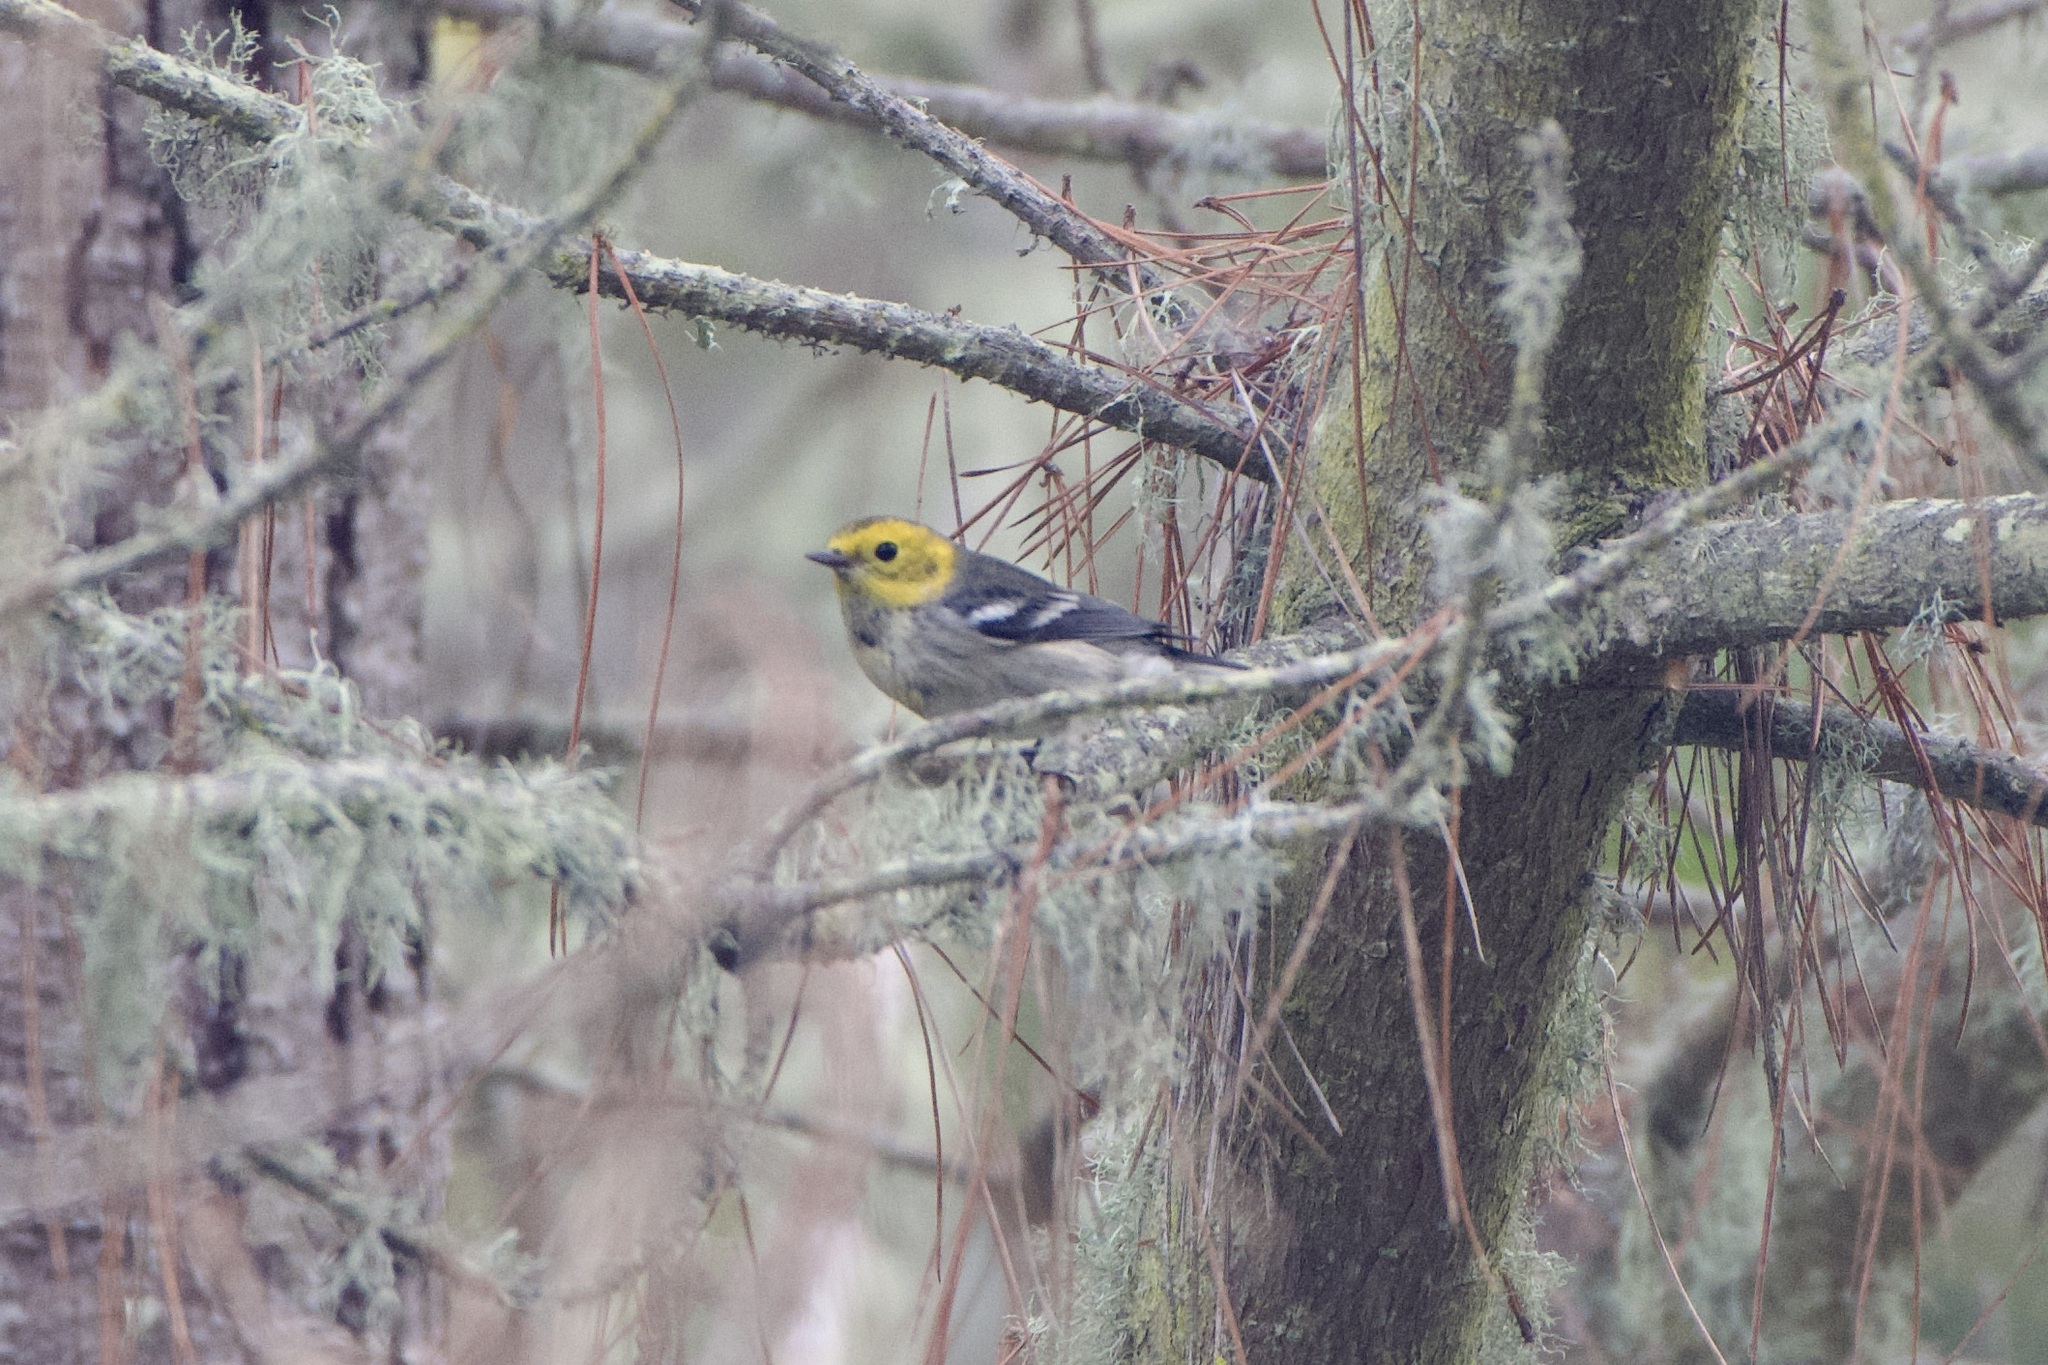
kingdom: Animalia
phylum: Chordata
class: Aves
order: Passeriformes
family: Parulidae
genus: Setophaga
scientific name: Setophaga occidentalis
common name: Hermit warbler
